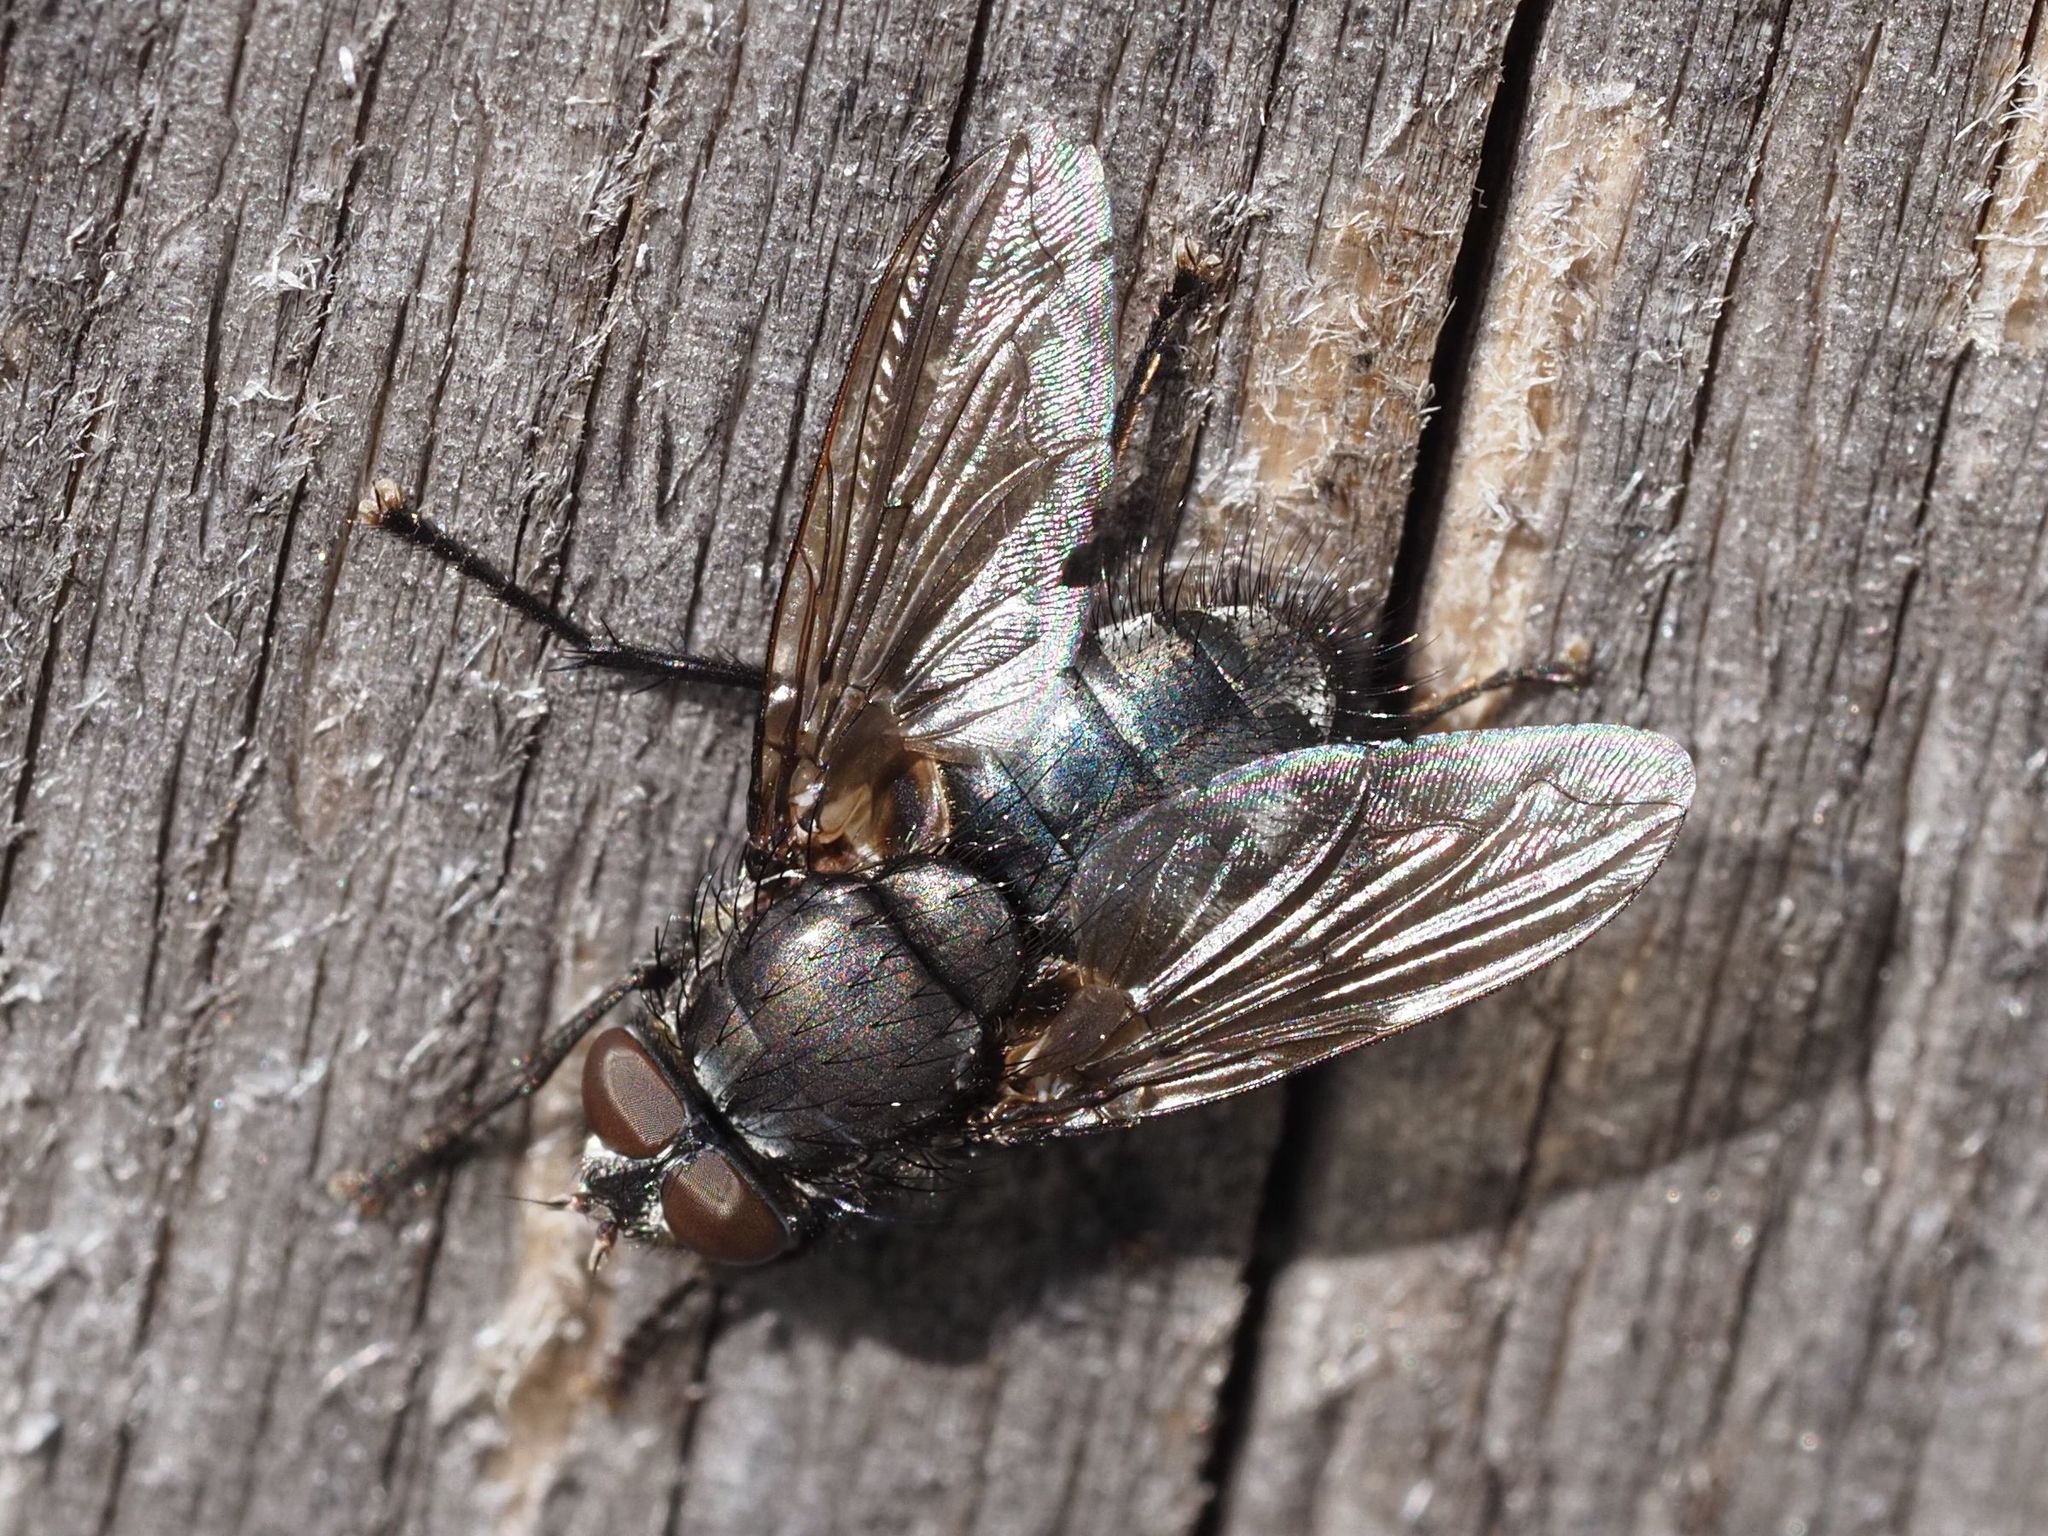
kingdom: Animalia
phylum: Arthropoda
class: Insecta
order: Diptera
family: Polleniidae
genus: Pollenia
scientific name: Pollenia vagabunda
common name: Vagabund cluster fly
